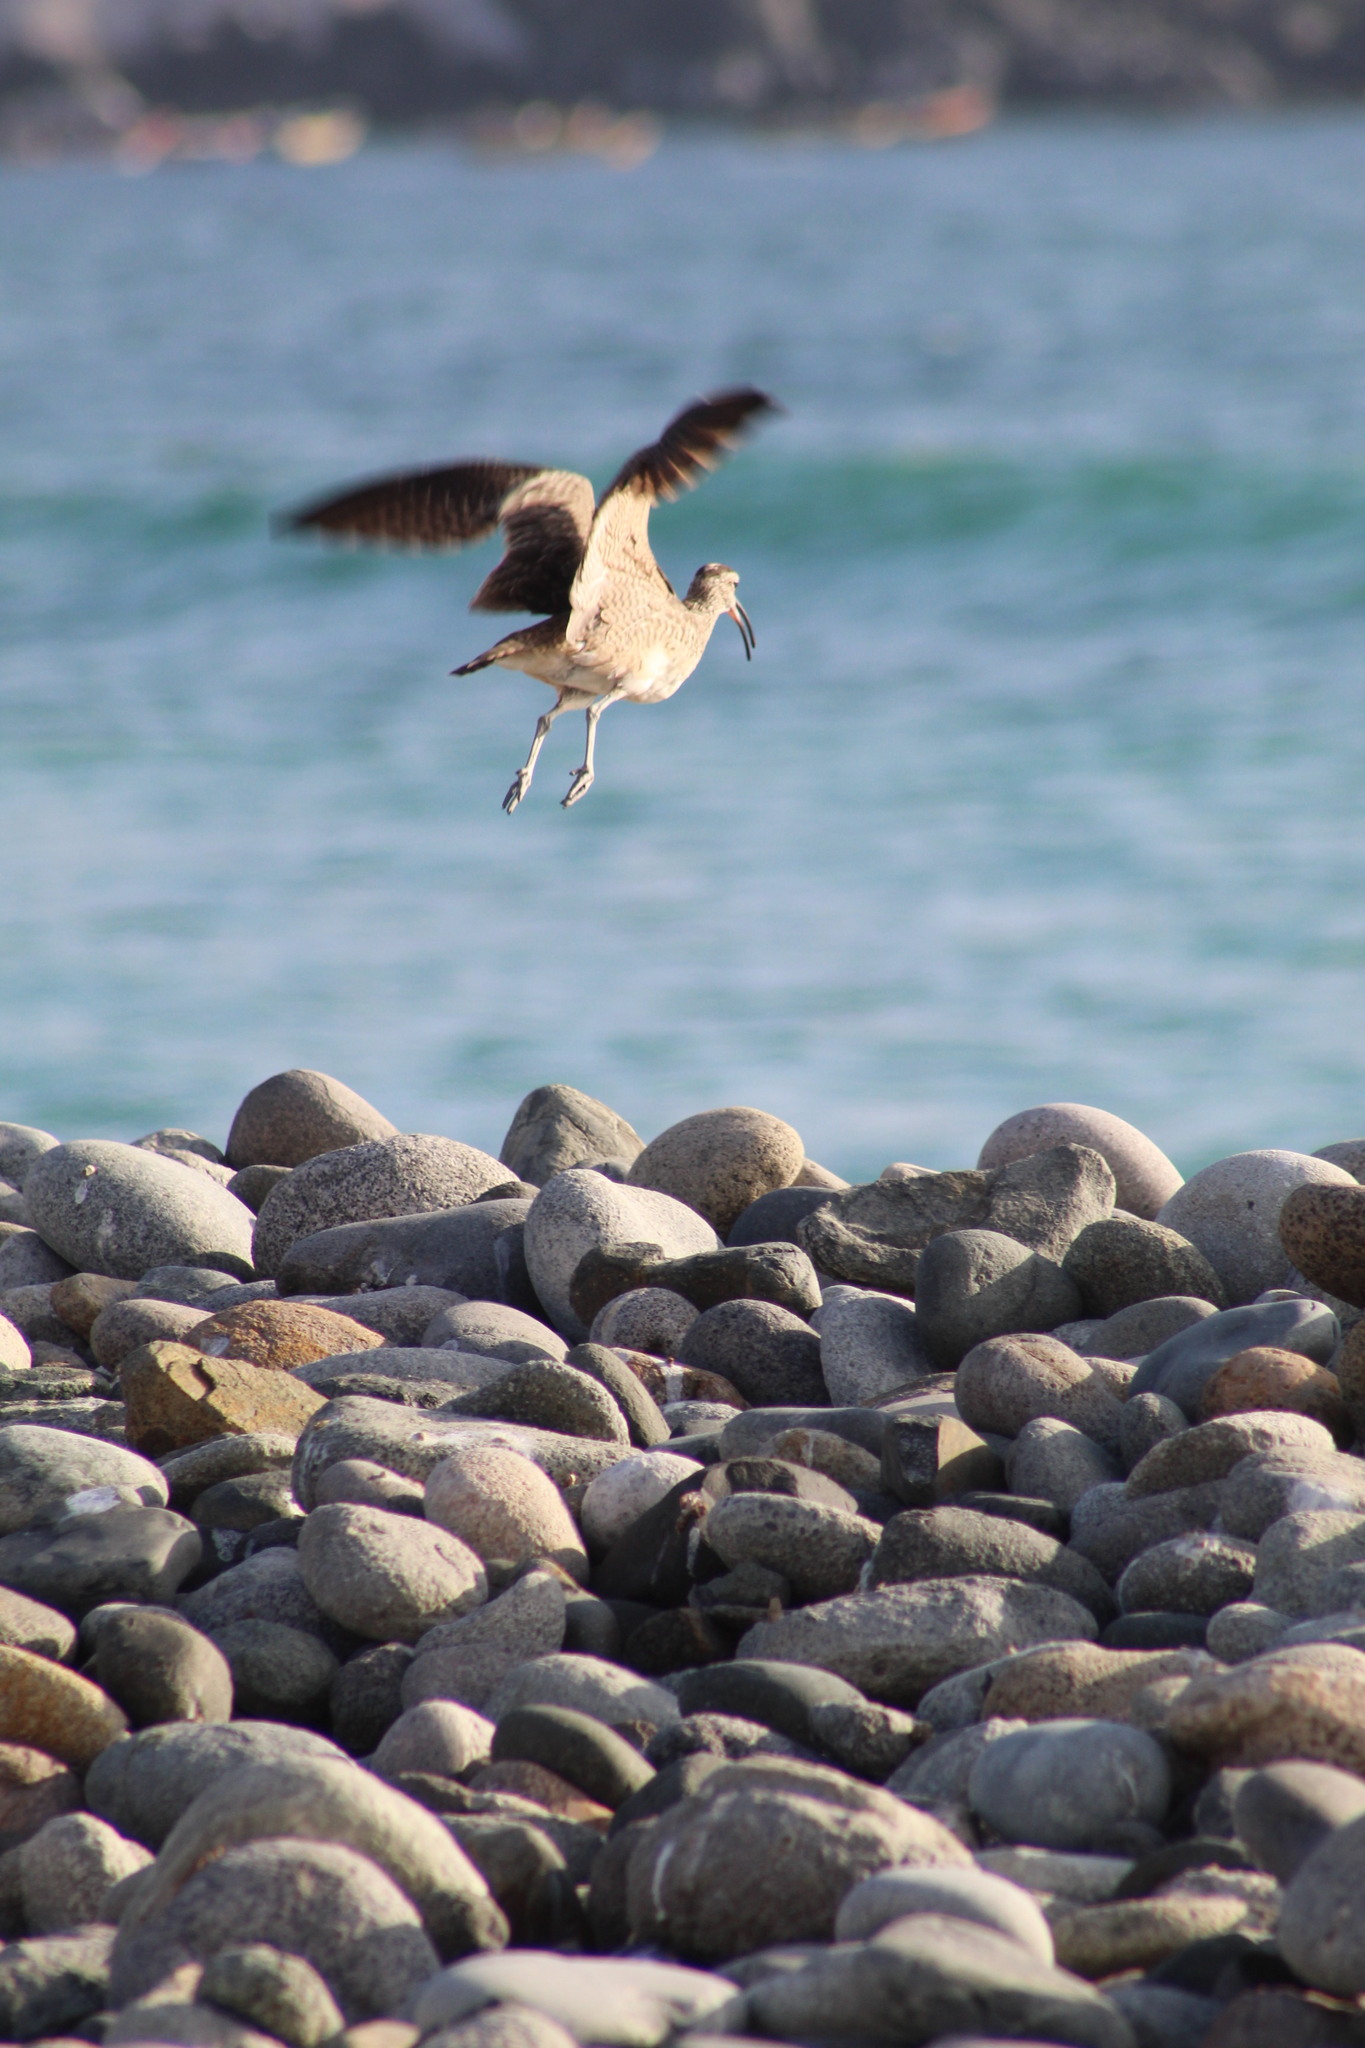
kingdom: Animalia
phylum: Chordata
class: Aves
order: Charadriiformes
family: Scolopacidae
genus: Numenius
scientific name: Numenius phaeopus
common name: Whimbrel
